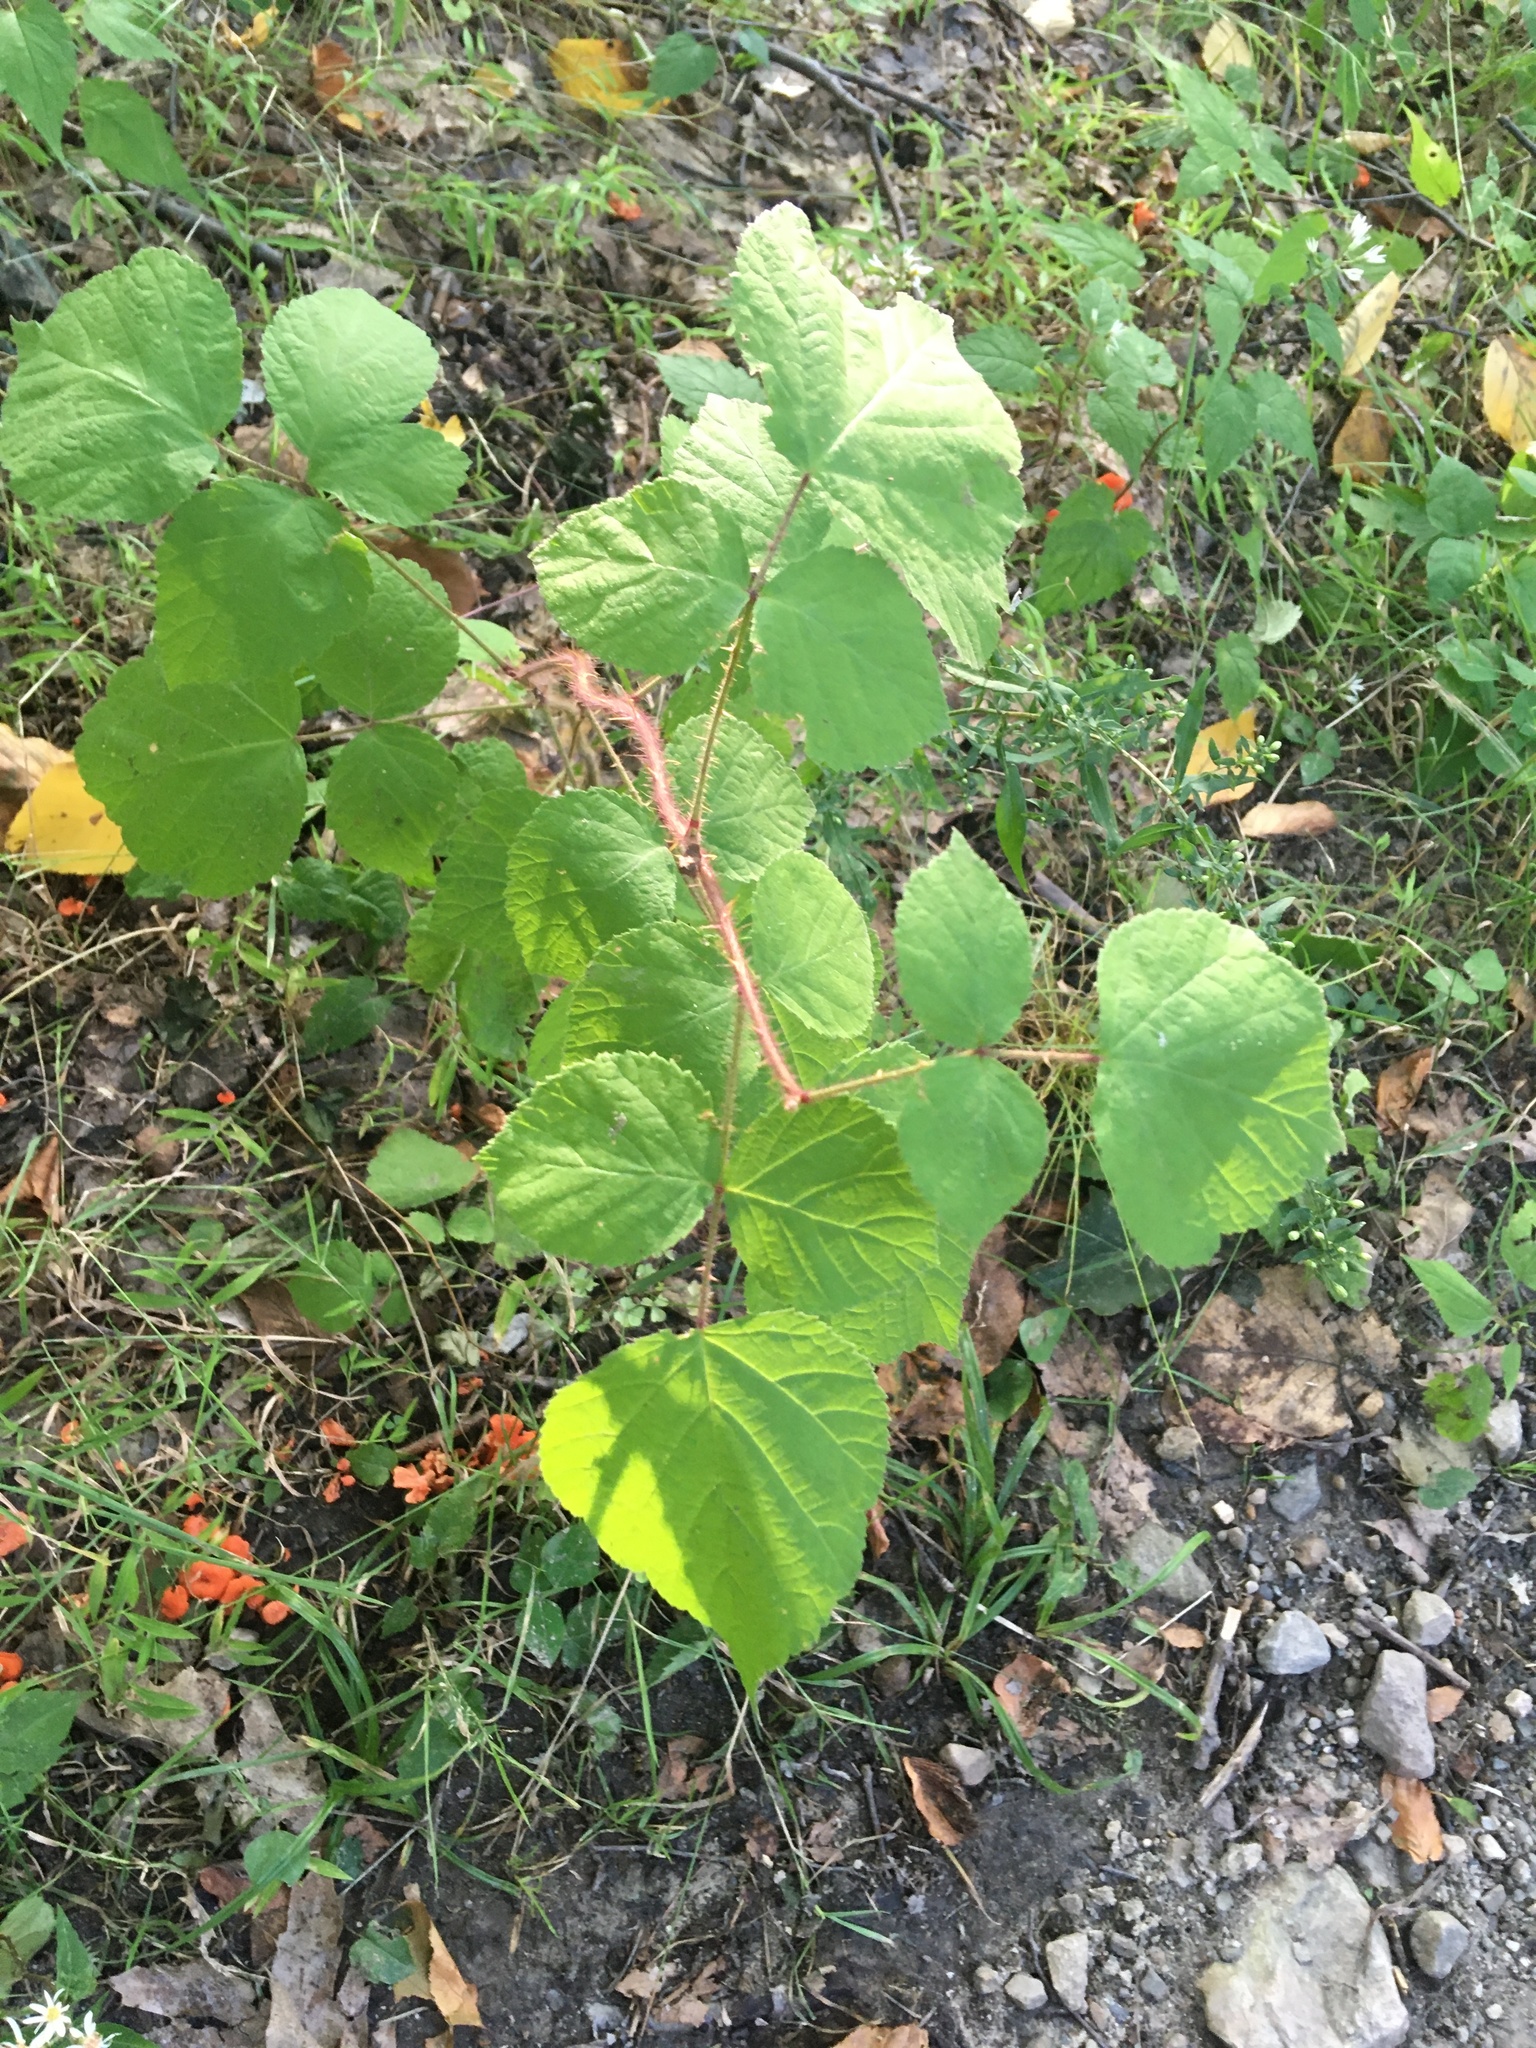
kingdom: Plantae
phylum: Tracheophyta
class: Magnoliopsida
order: Rosales
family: Rosaceae
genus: Rubus
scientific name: Rubus phoenicolasius
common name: Japanese wineberry
